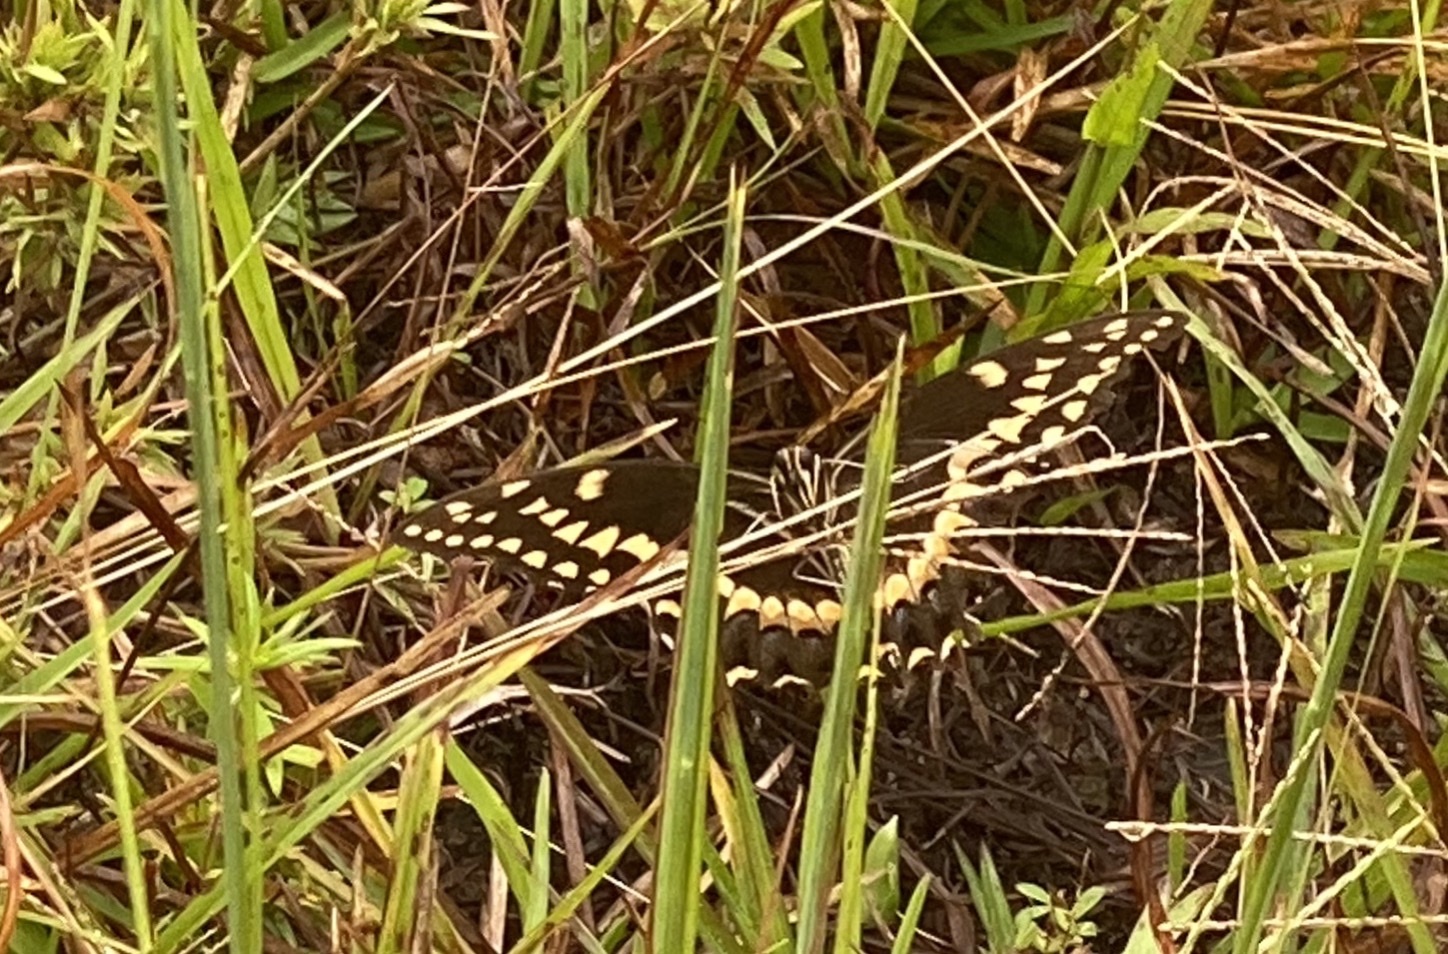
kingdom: Animalia
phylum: Arthropoda
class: Insecta
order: Lepidoptera
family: Papilionidae
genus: Papilio
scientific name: Papilio palamedes
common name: Palamedes swallowtail
